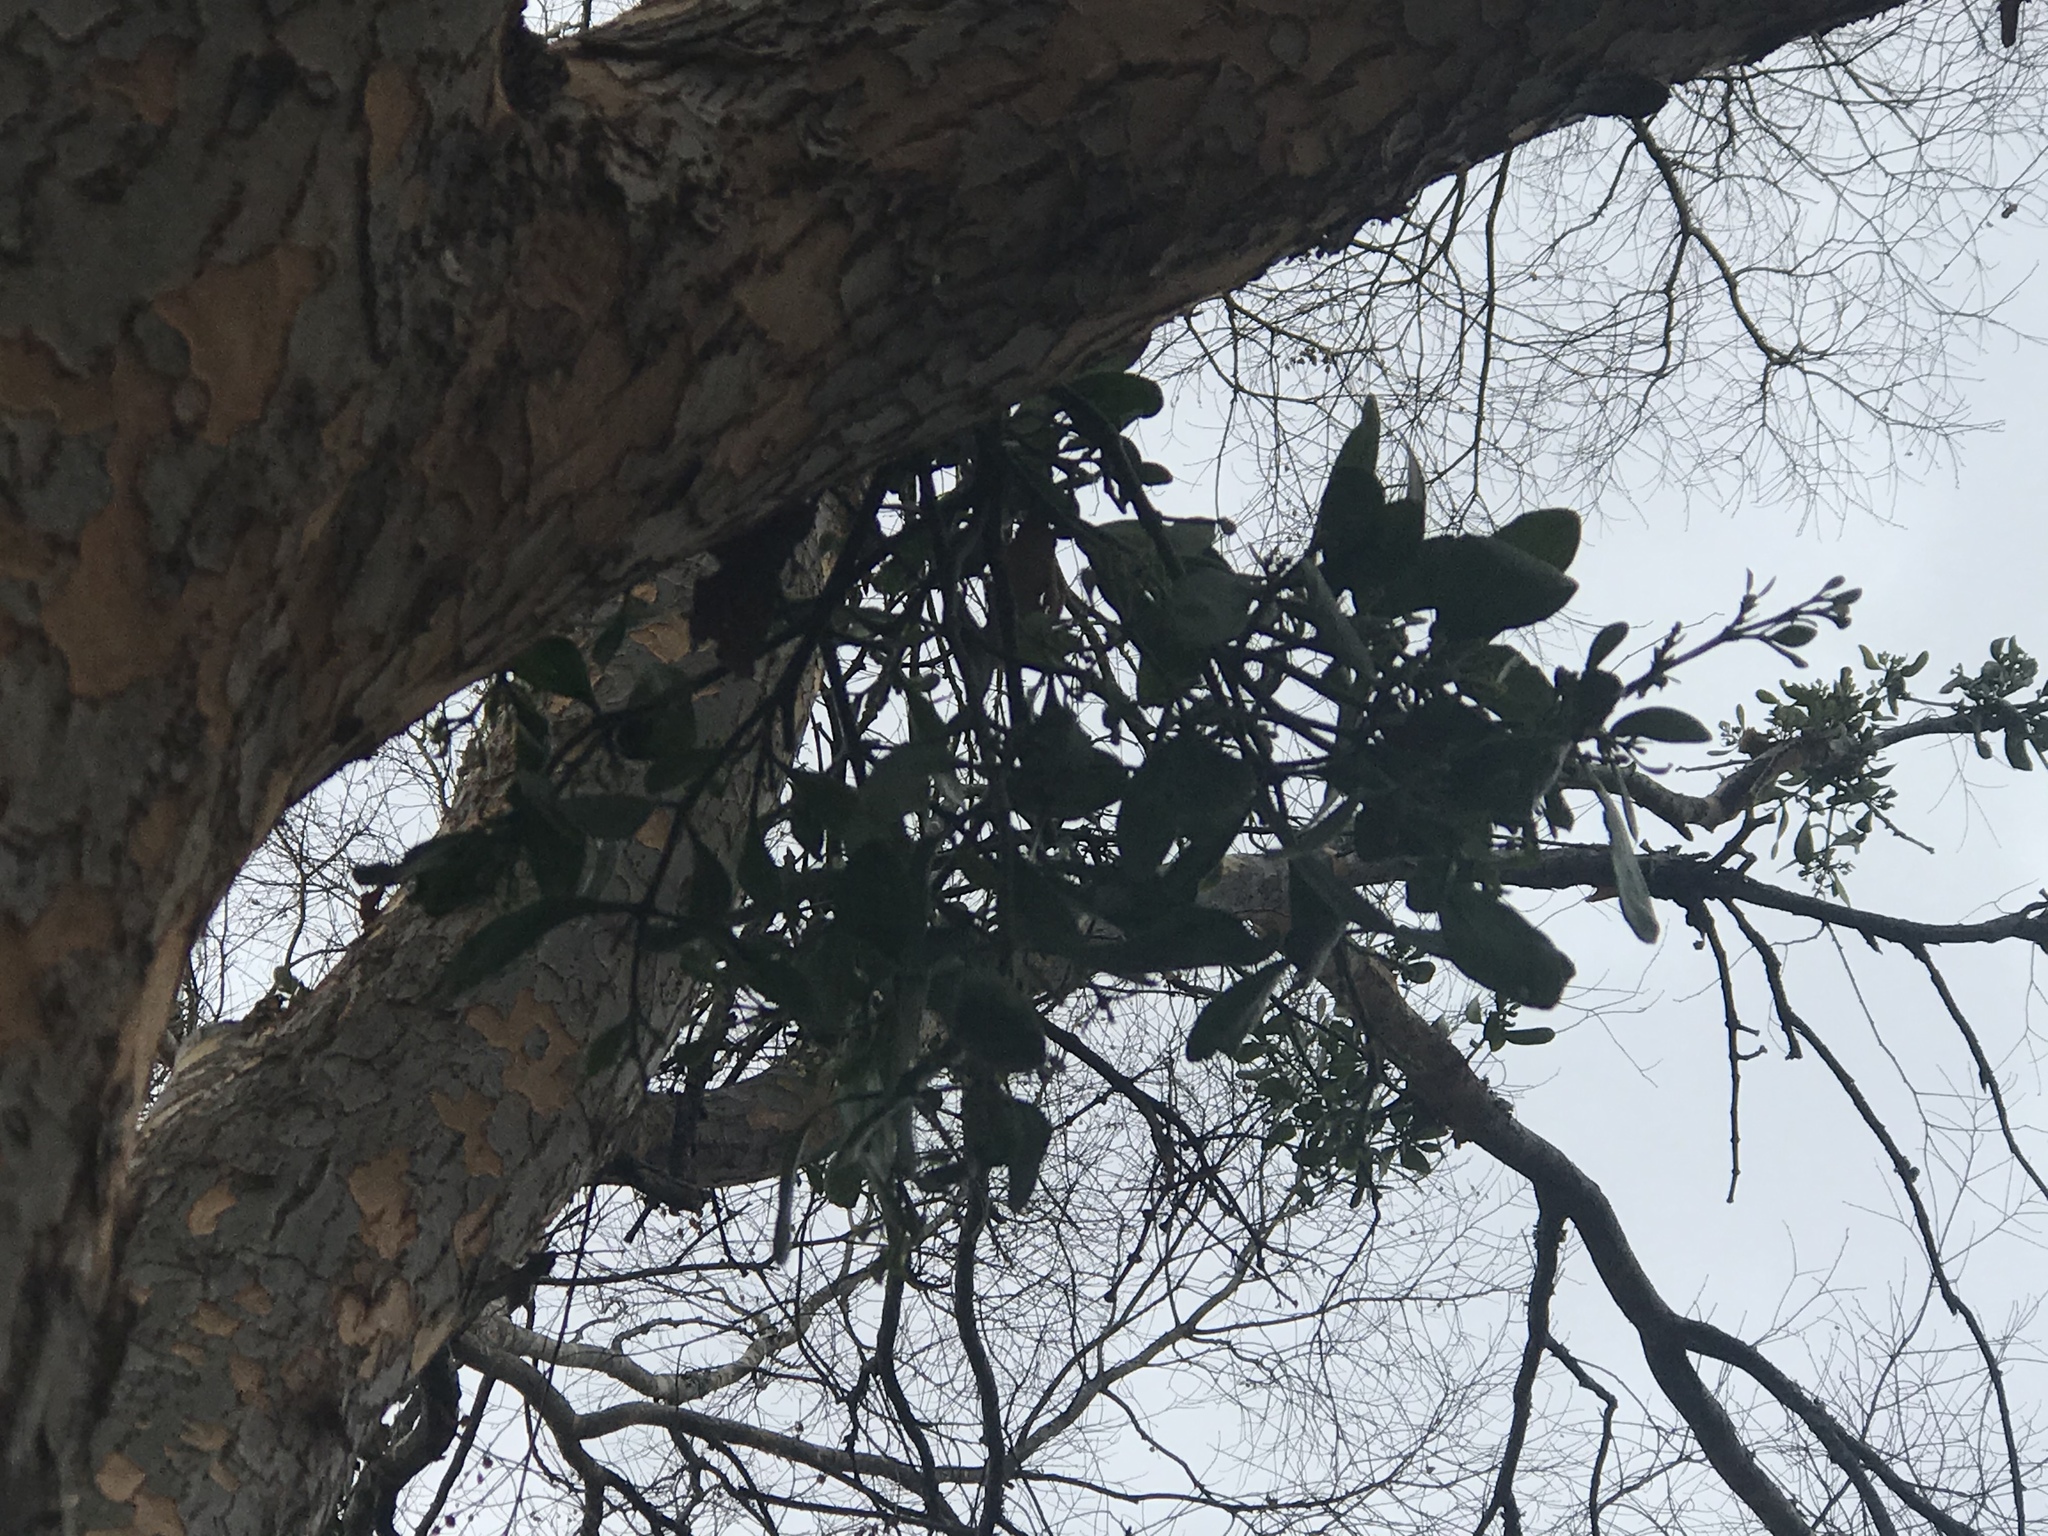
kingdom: Plantae
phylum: Tracheophyta
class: Magnoliopsida
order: Santalales
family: Viscaceae
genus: Phoradendron
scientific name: Phoradendron leucarpum
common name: Pacific mistletoe
